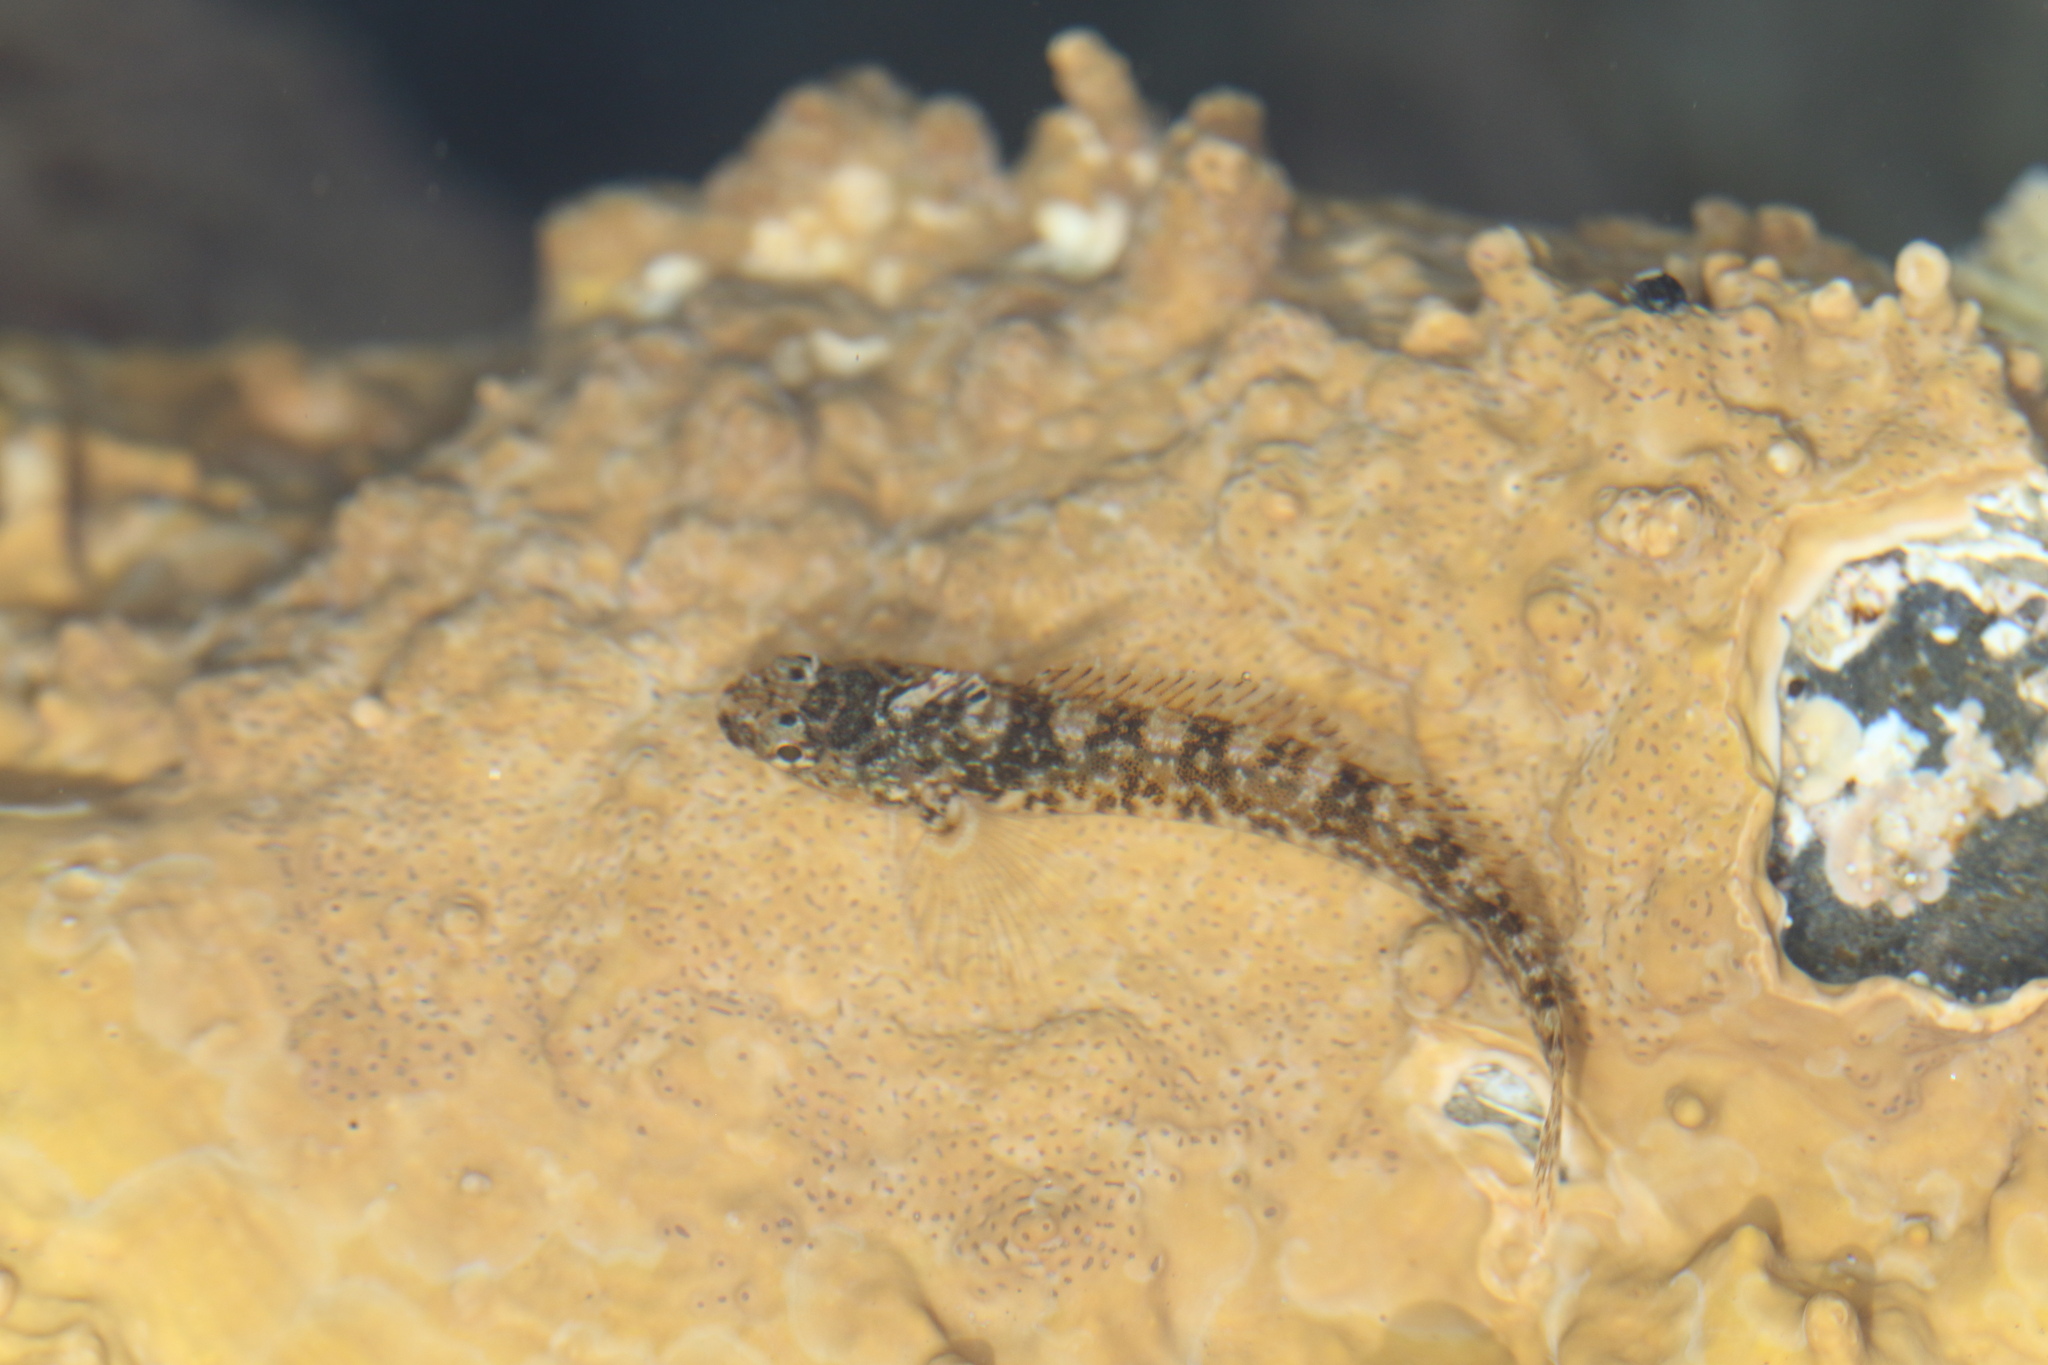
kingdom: Animalia
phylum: Chordata
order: Perciformes
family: Tripterygiidae
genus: Bellapiscis
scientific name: Bellapiscis lesleyae
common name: Mottled twister
